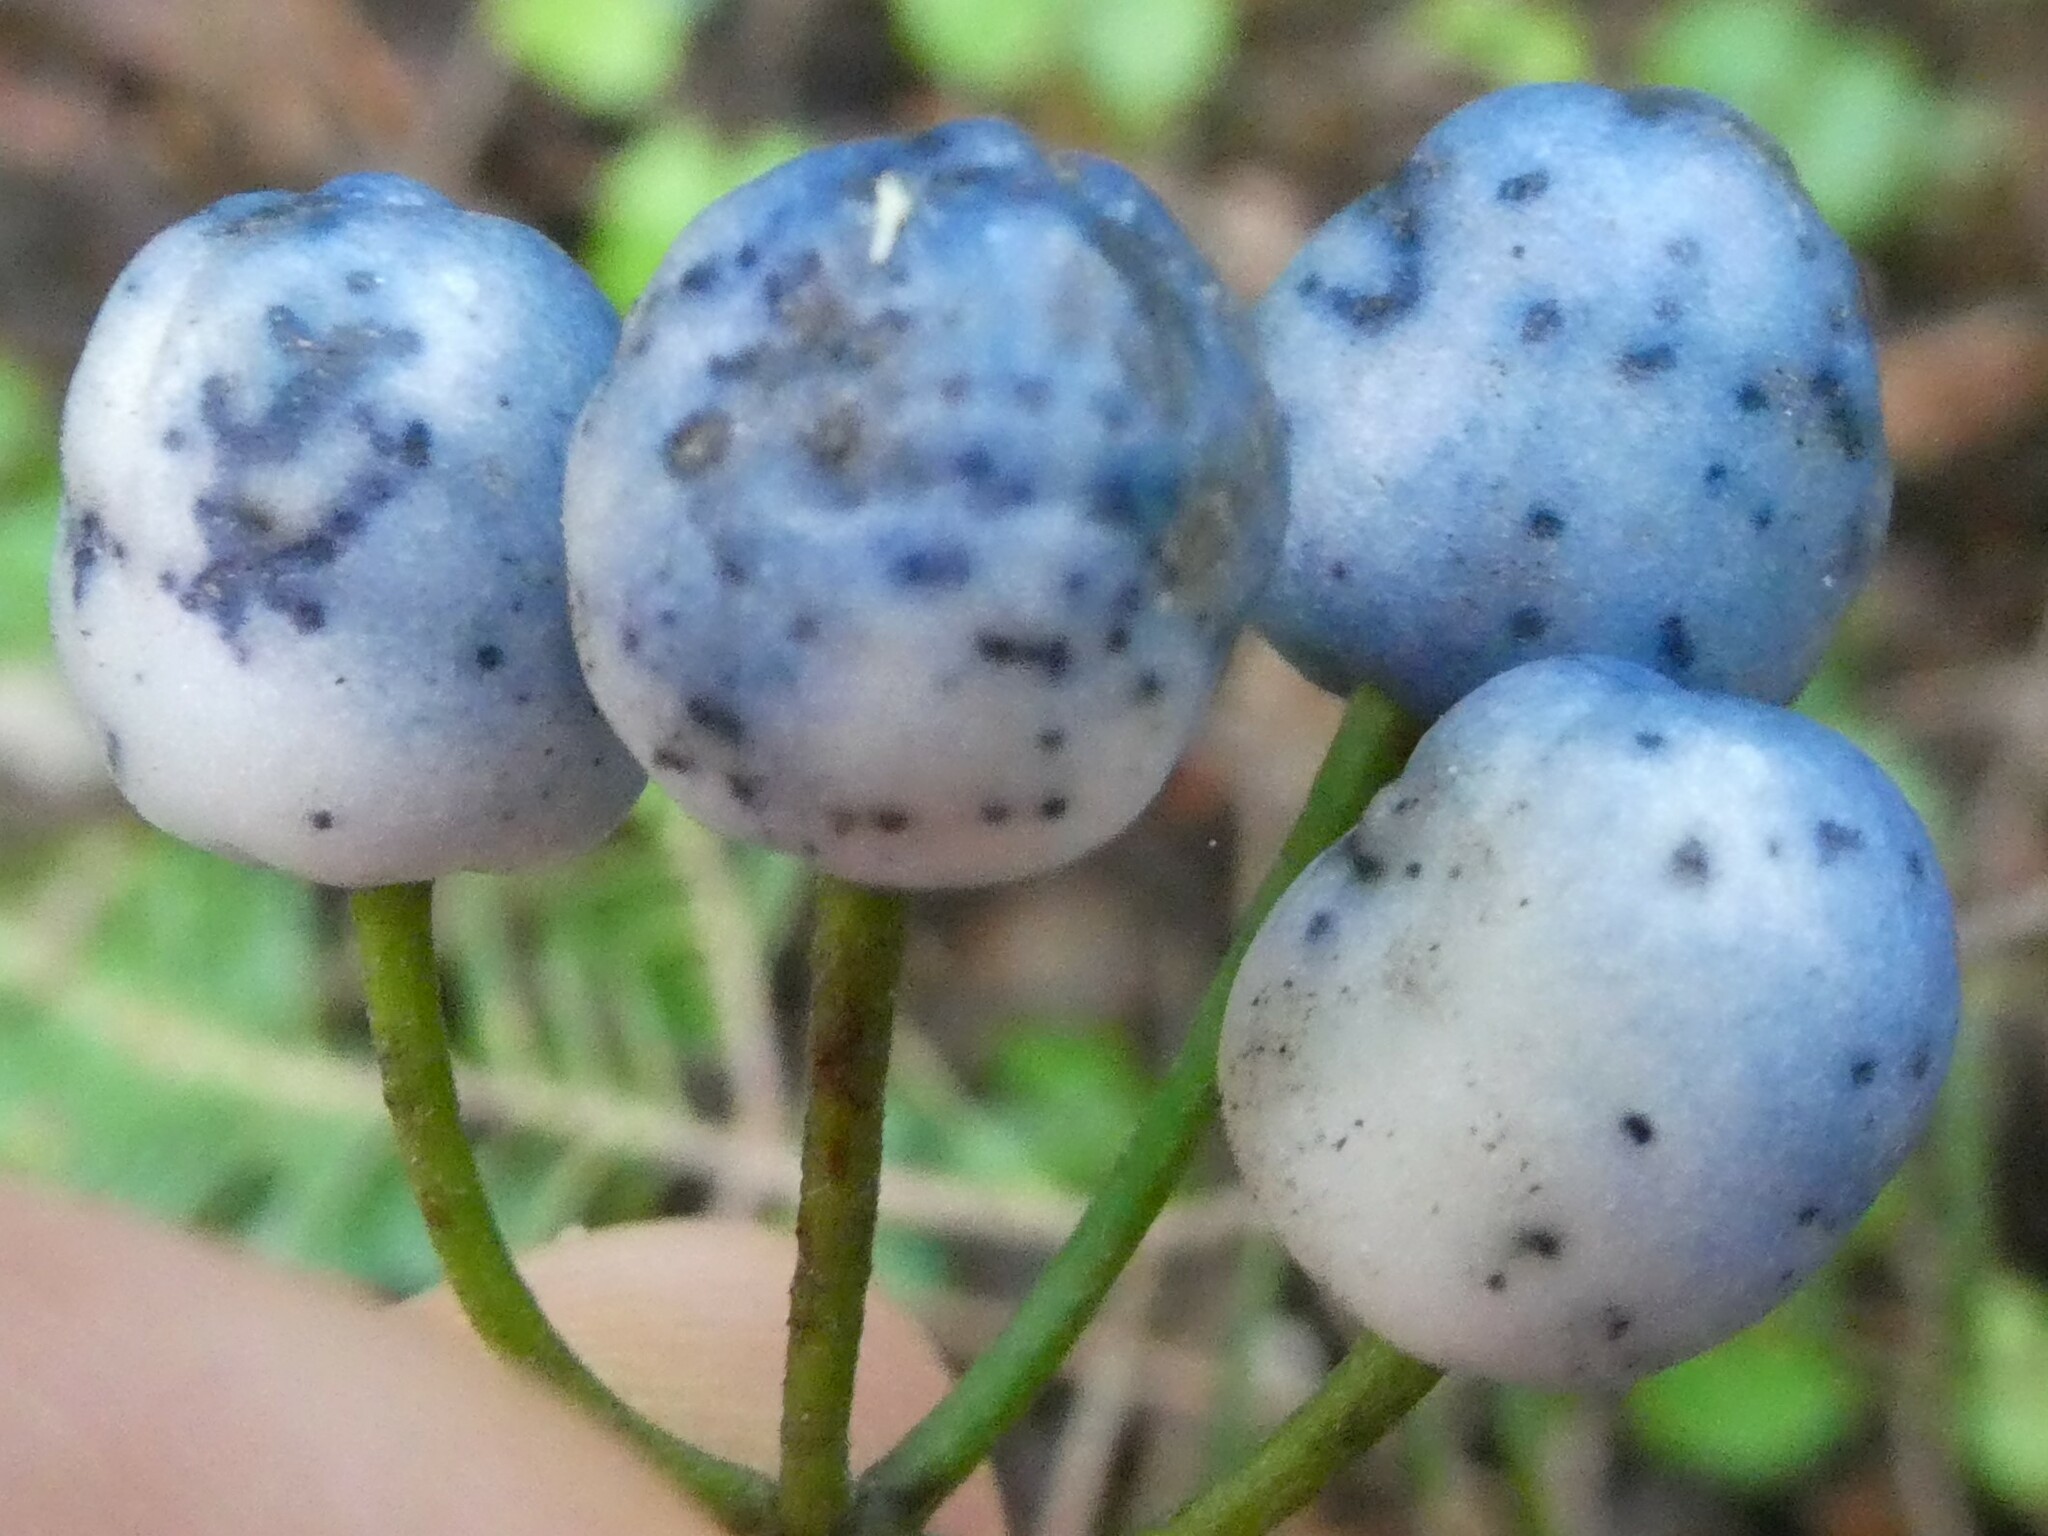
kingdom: Plantae
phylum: Tracheophyta
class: Liliopsida
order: Liliales
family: Liliaceae
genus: Clintonia
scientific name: Clintonia borealis
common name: Yellow clintonia
